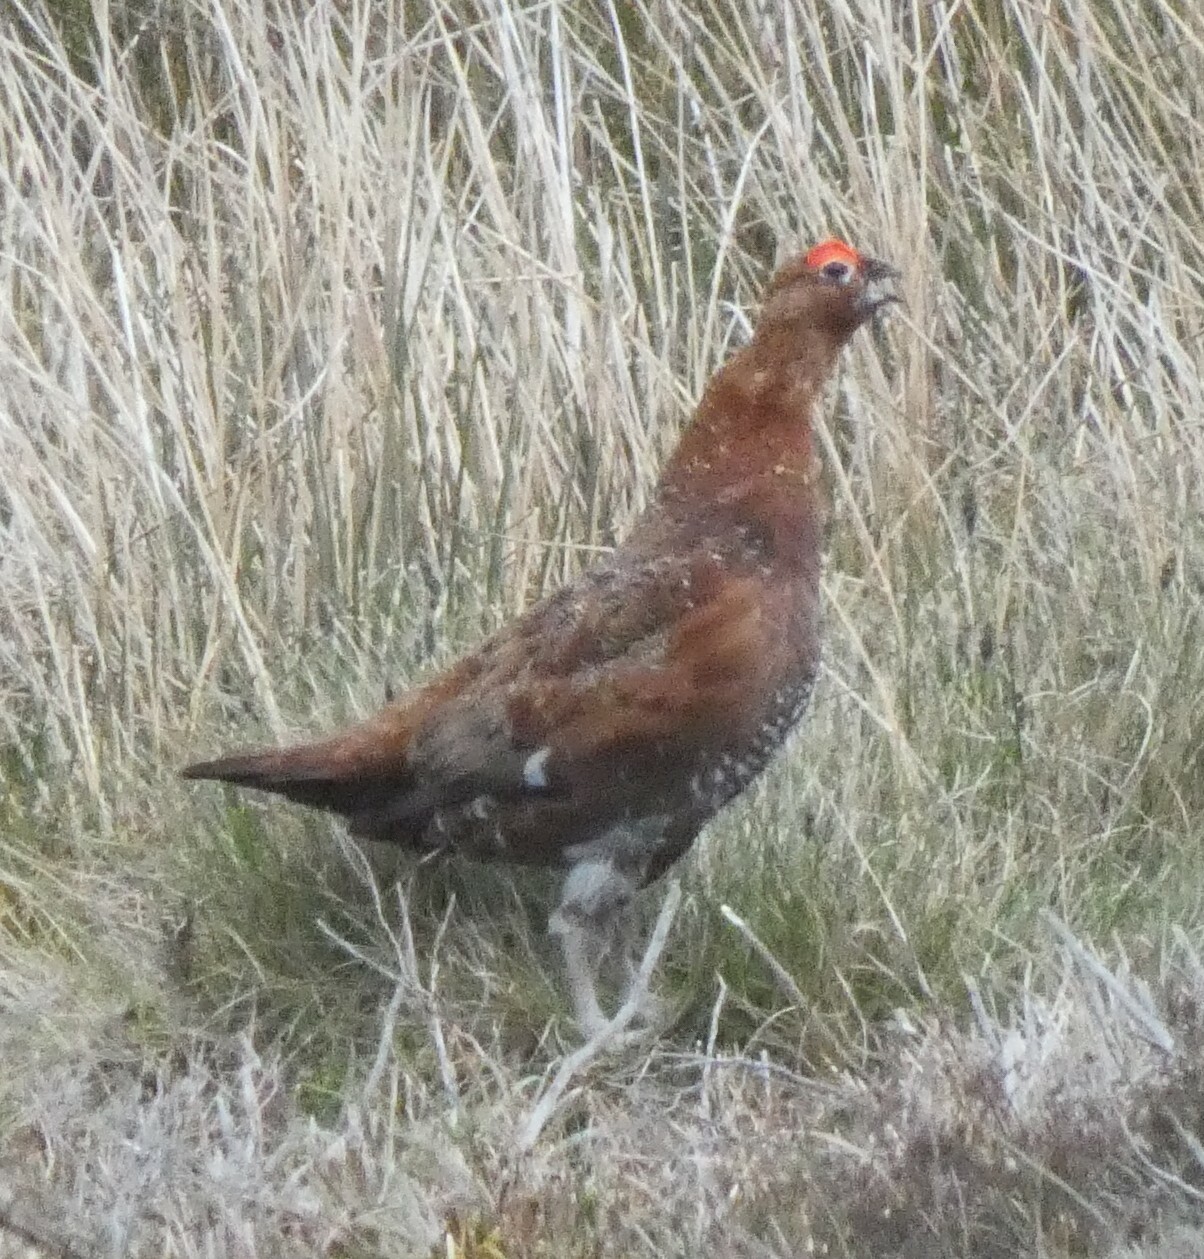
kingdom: Animalia
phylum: Chordata
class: Aves
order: Galliformes
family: Phasianidae
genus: Lagopus
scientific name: Lagopus lagopus
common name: Willow ptarmigan
